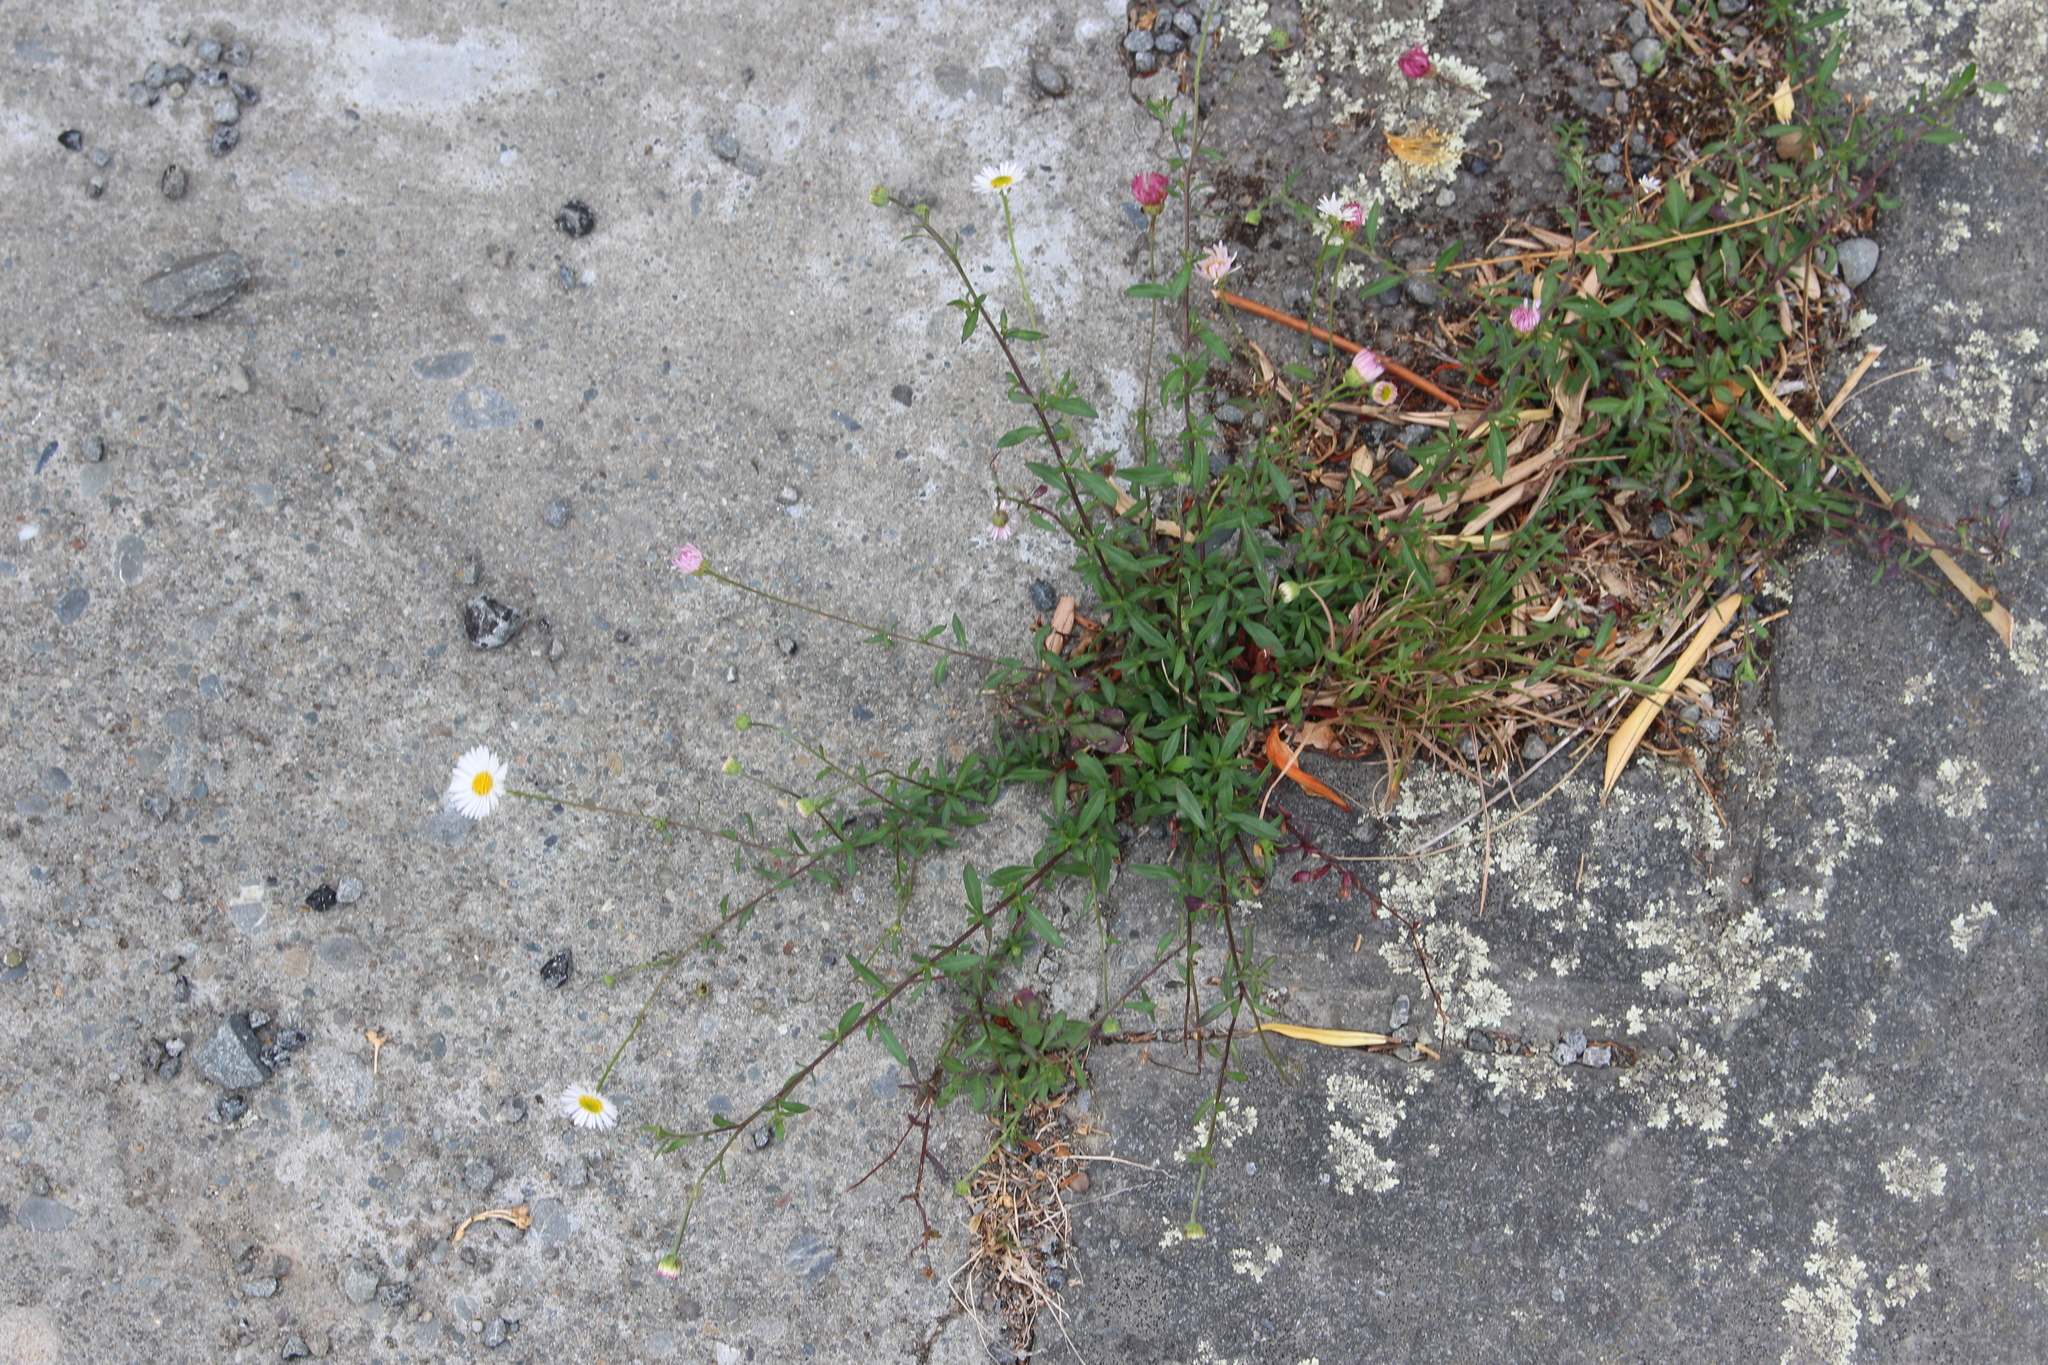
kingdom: Plantae
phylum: Tracheophyta
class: Magnoliopsida
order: Asterales
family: Asteraceae
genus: Erigeron
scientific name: Erigeron karvinskianus
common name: Mexican fleabane
